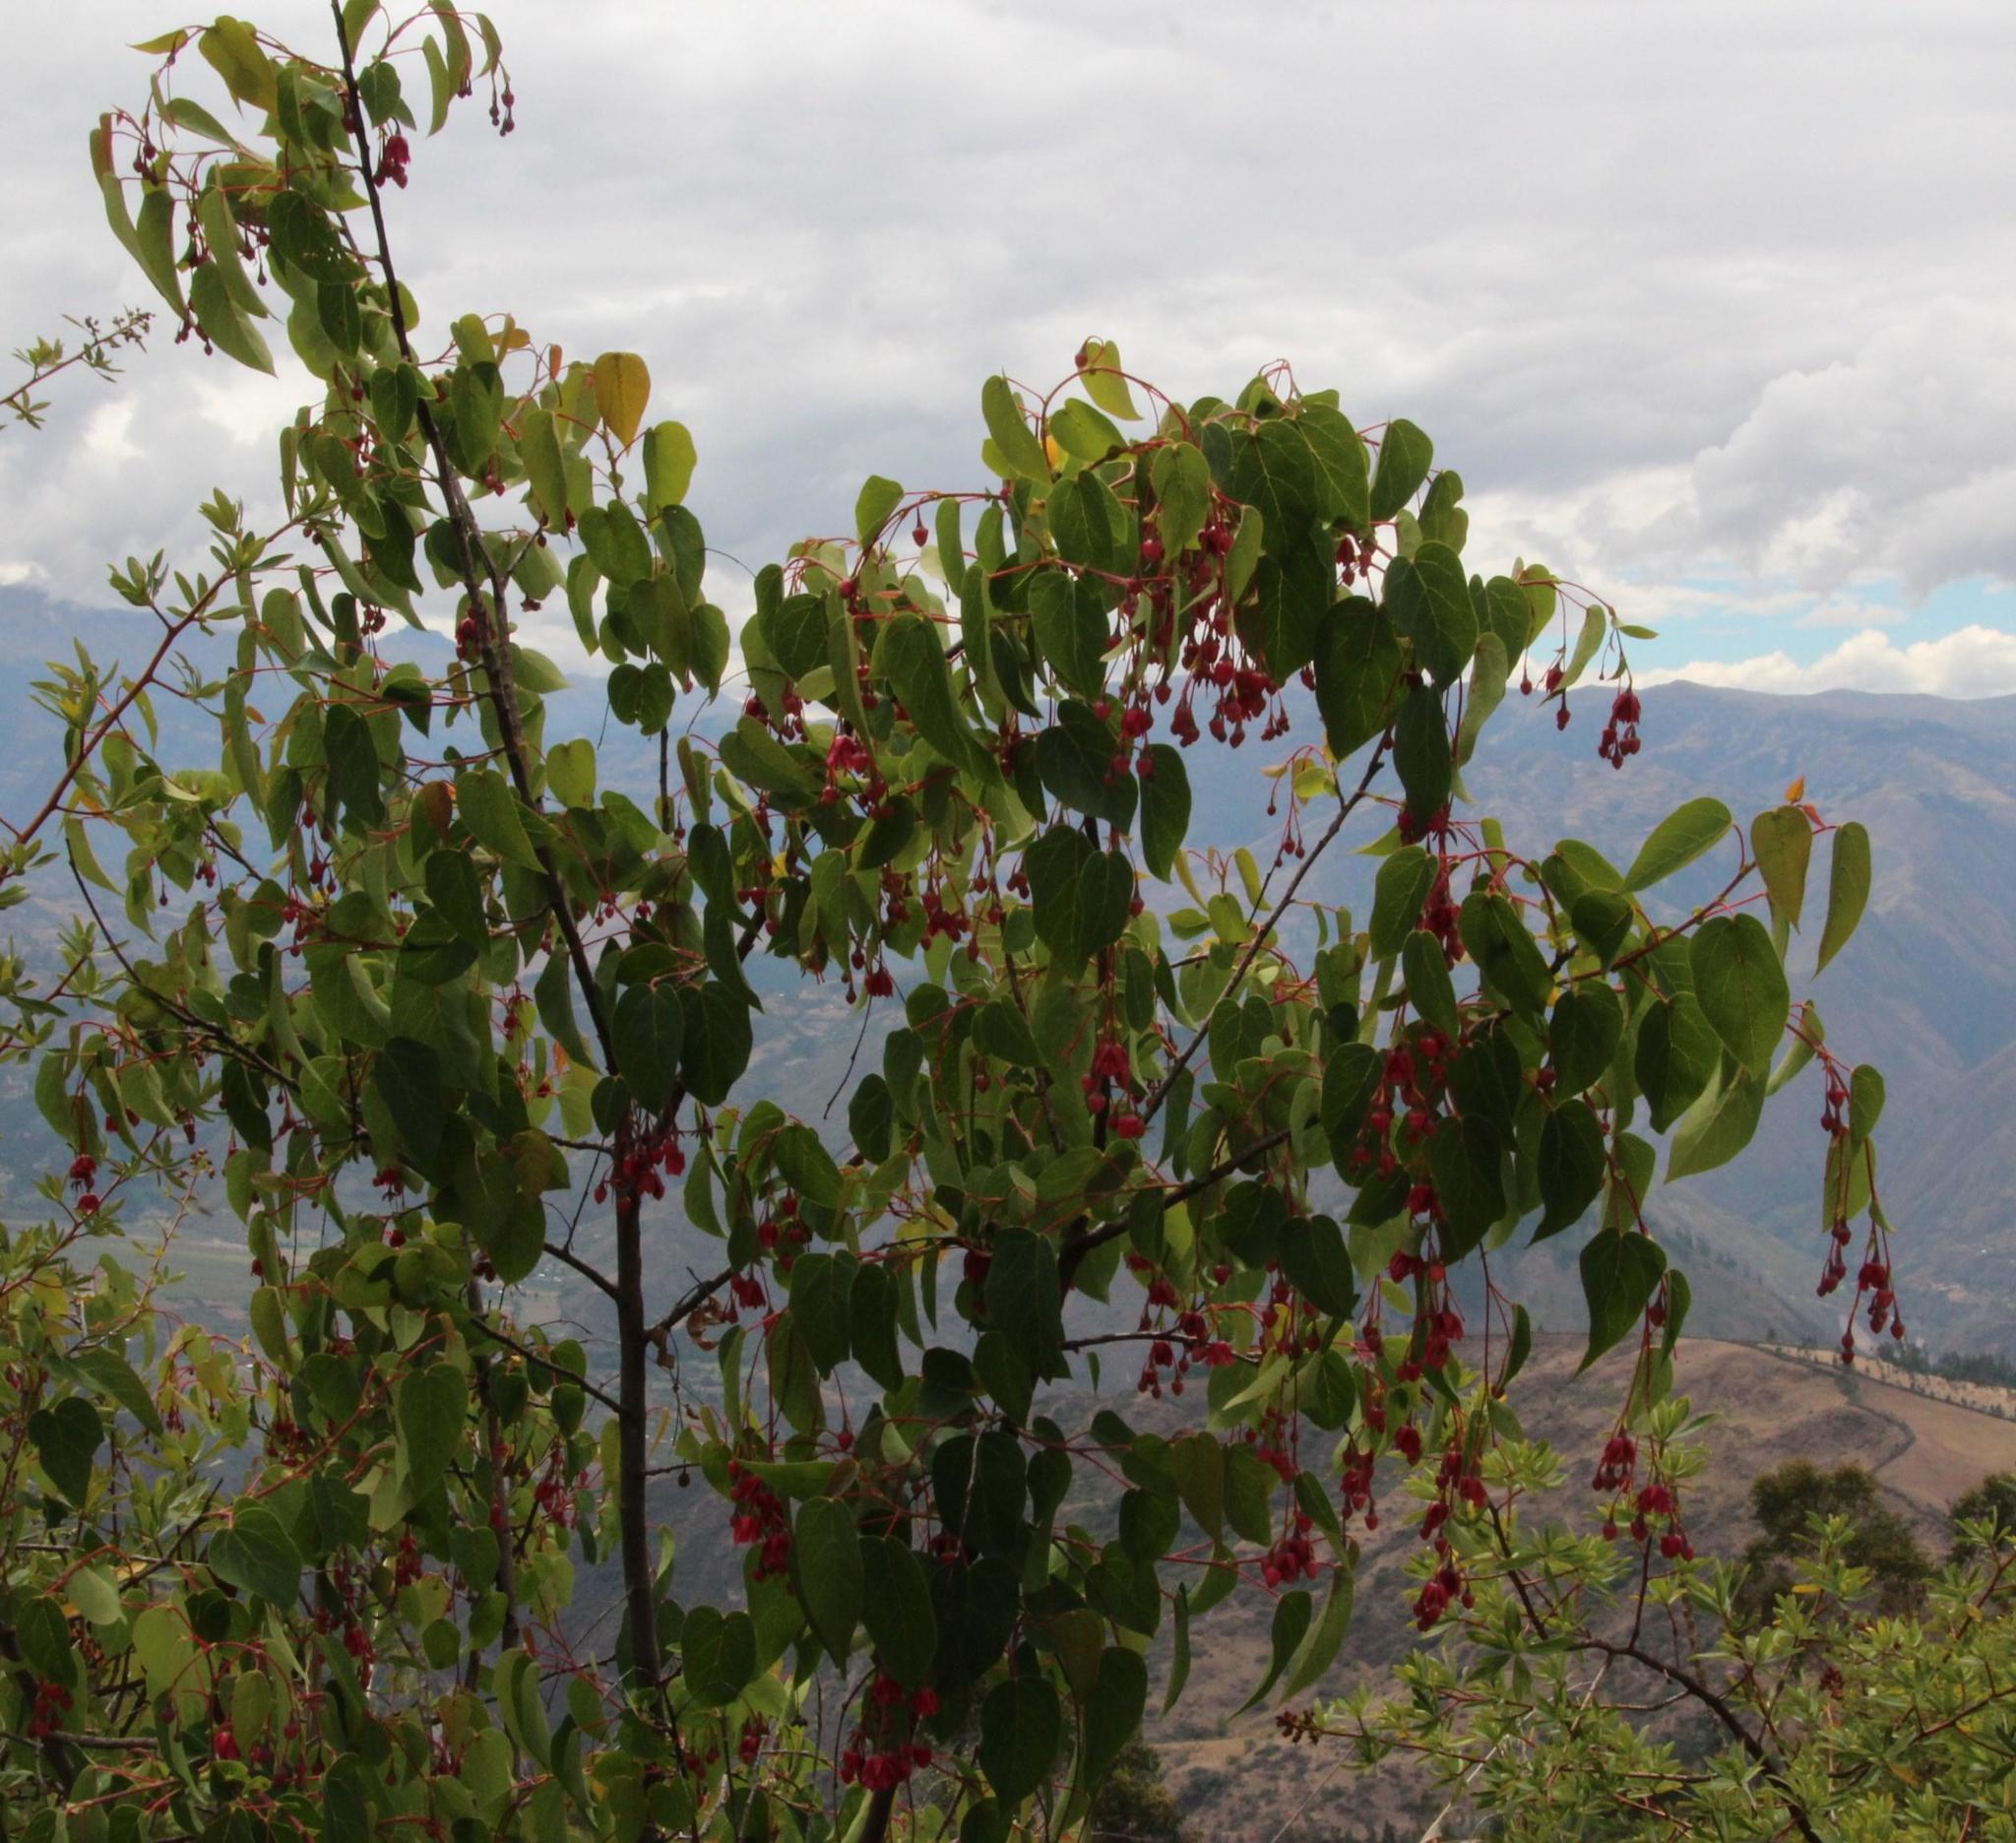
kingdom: Plantae
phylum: Tracheophyta
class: Magnoliopsida
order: Oxalidales
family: Elaeocarpaceae
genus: Vallea
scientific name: Vallea stipularis
